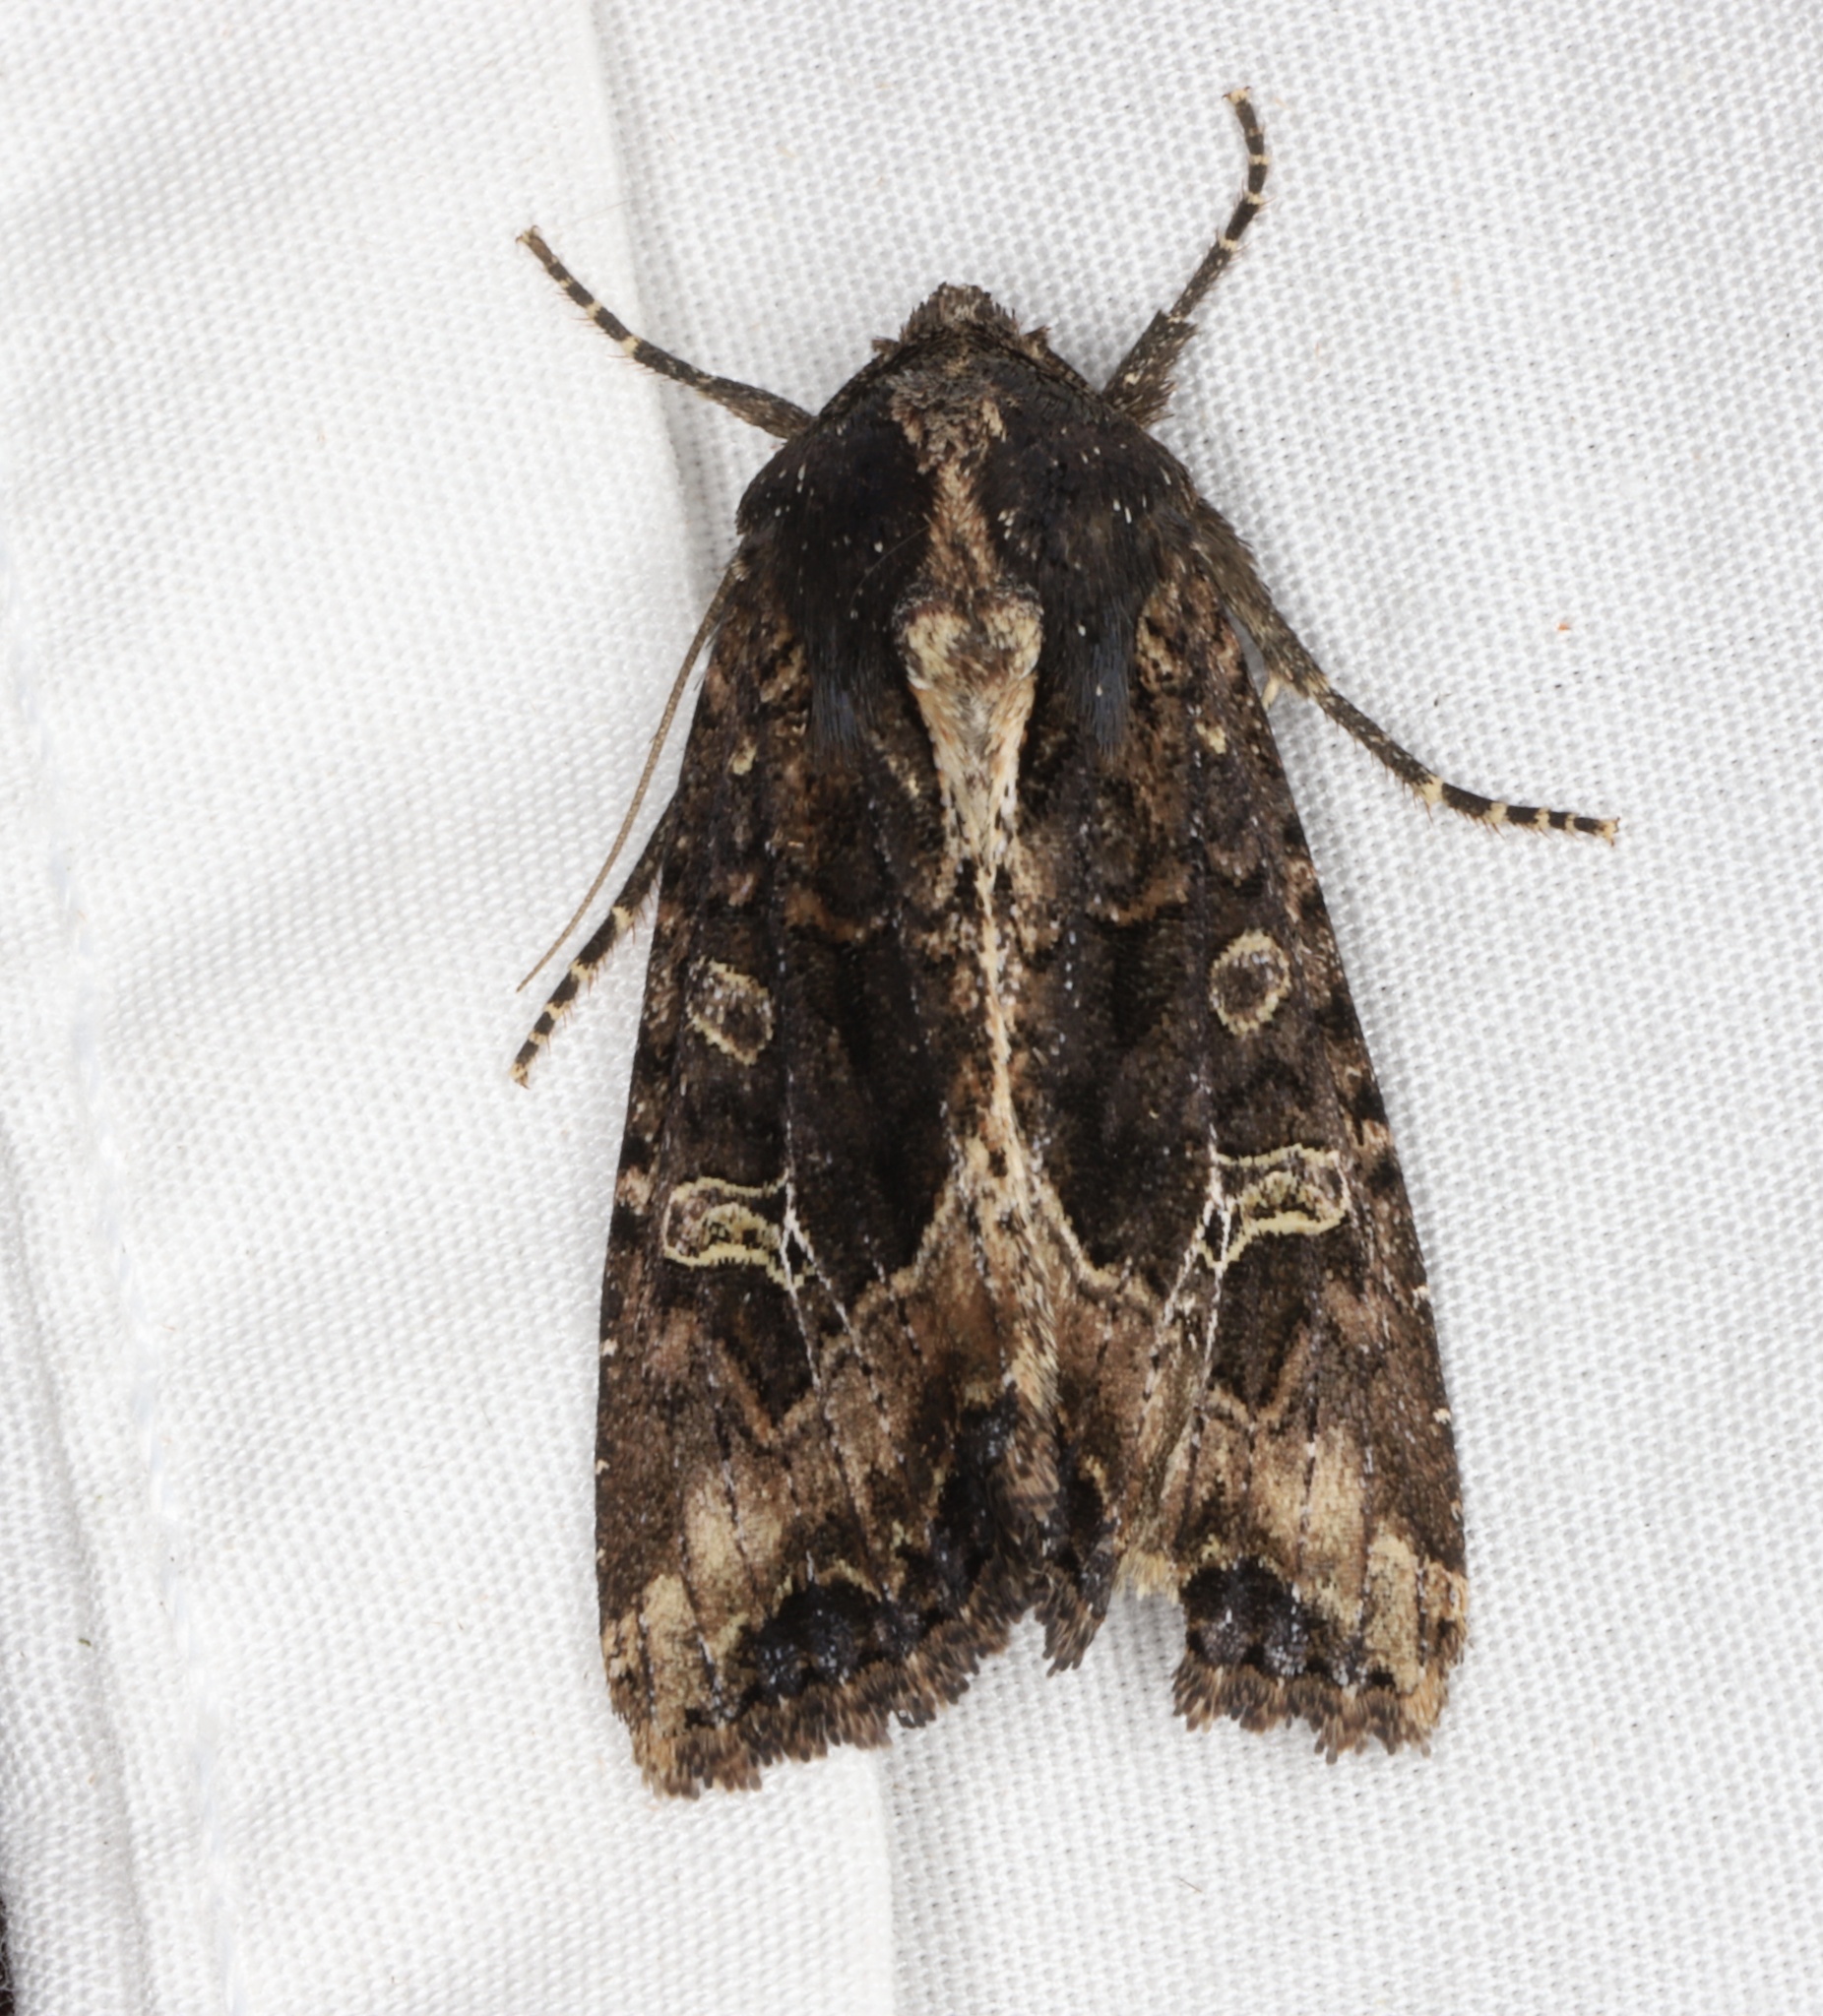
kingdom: Animalia
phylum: Arthropoda
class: Insecta
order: Lepidoptera
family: Noctuidae
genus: Helotropha
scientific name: Helotropha reniformis
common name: Kidney-spotted rustic moth
